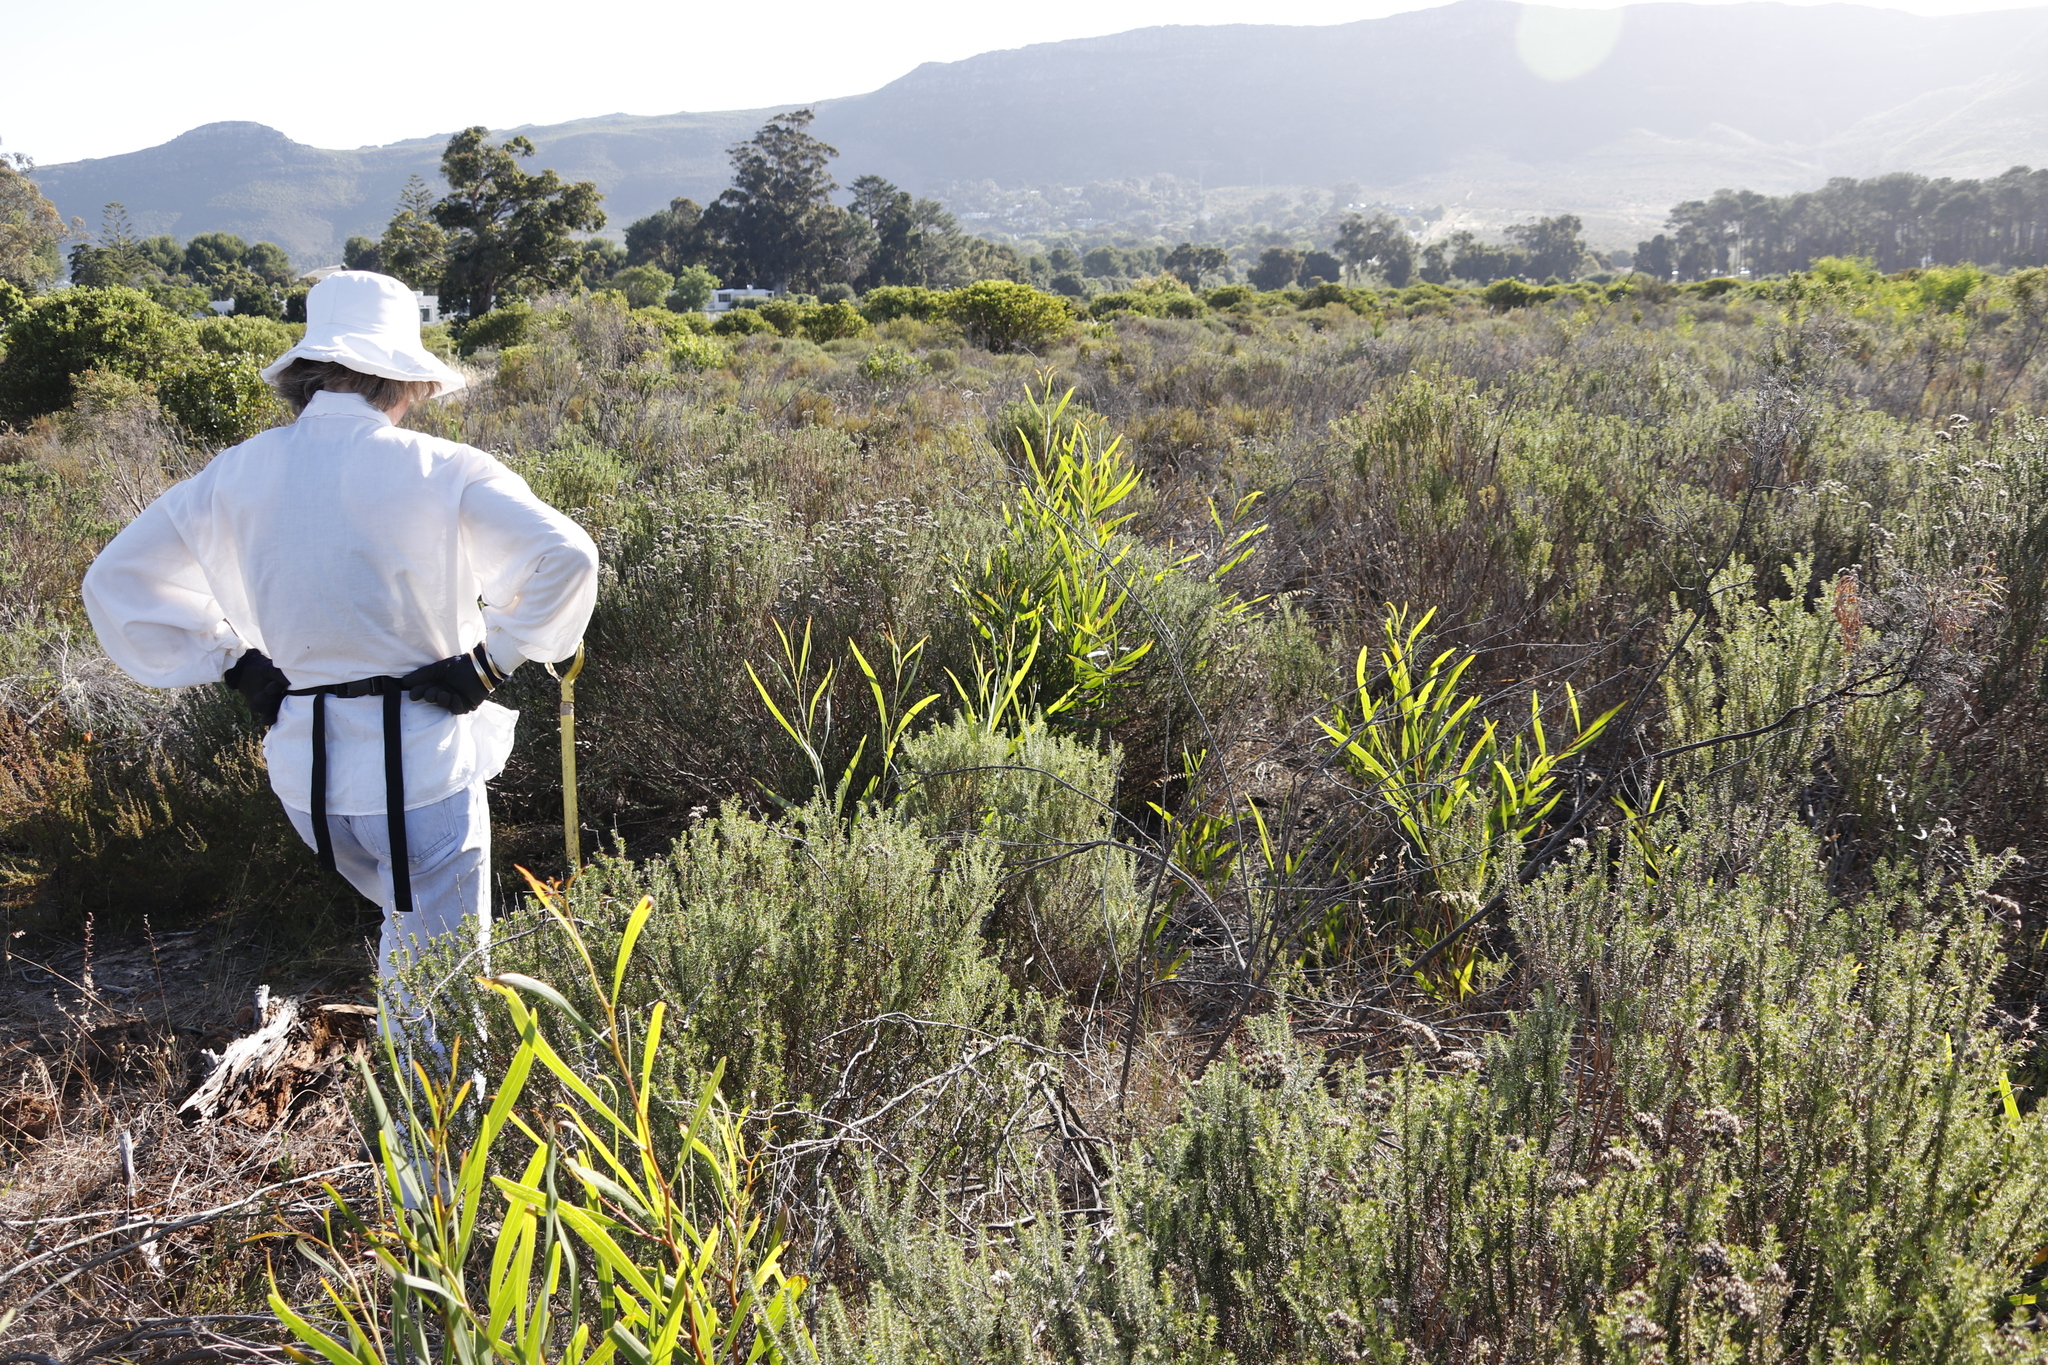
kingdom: Plantae
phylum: Tracheophyta
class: Magnoliopsida
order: Fabales
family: Fabaceae
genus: Acacia
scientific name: Acacia saligna
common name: Orange wattle
